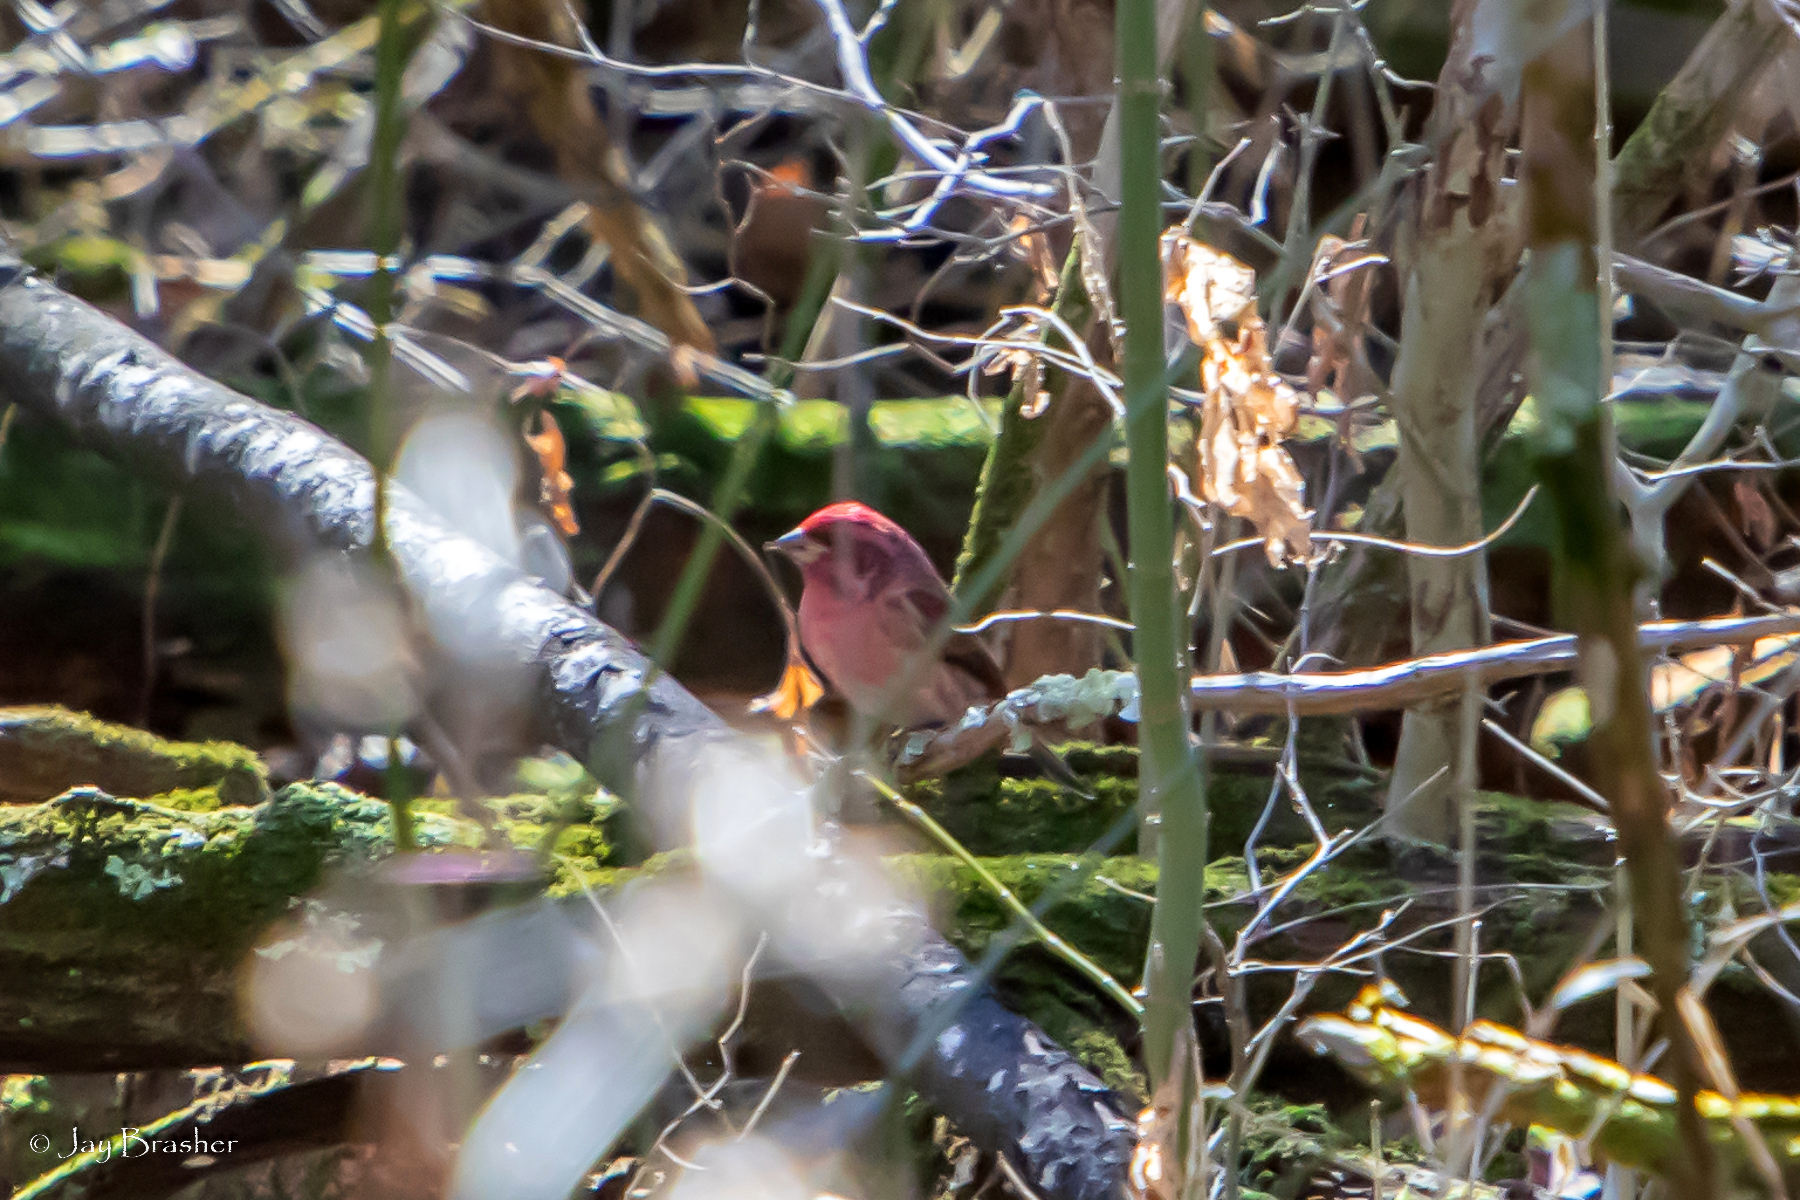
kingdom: Animalia
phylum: Chordata
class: Aves
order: Passeriformes
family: Fringillidae
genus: Haemorhous
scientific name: Haemorhous purpureus
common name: Purple finch
